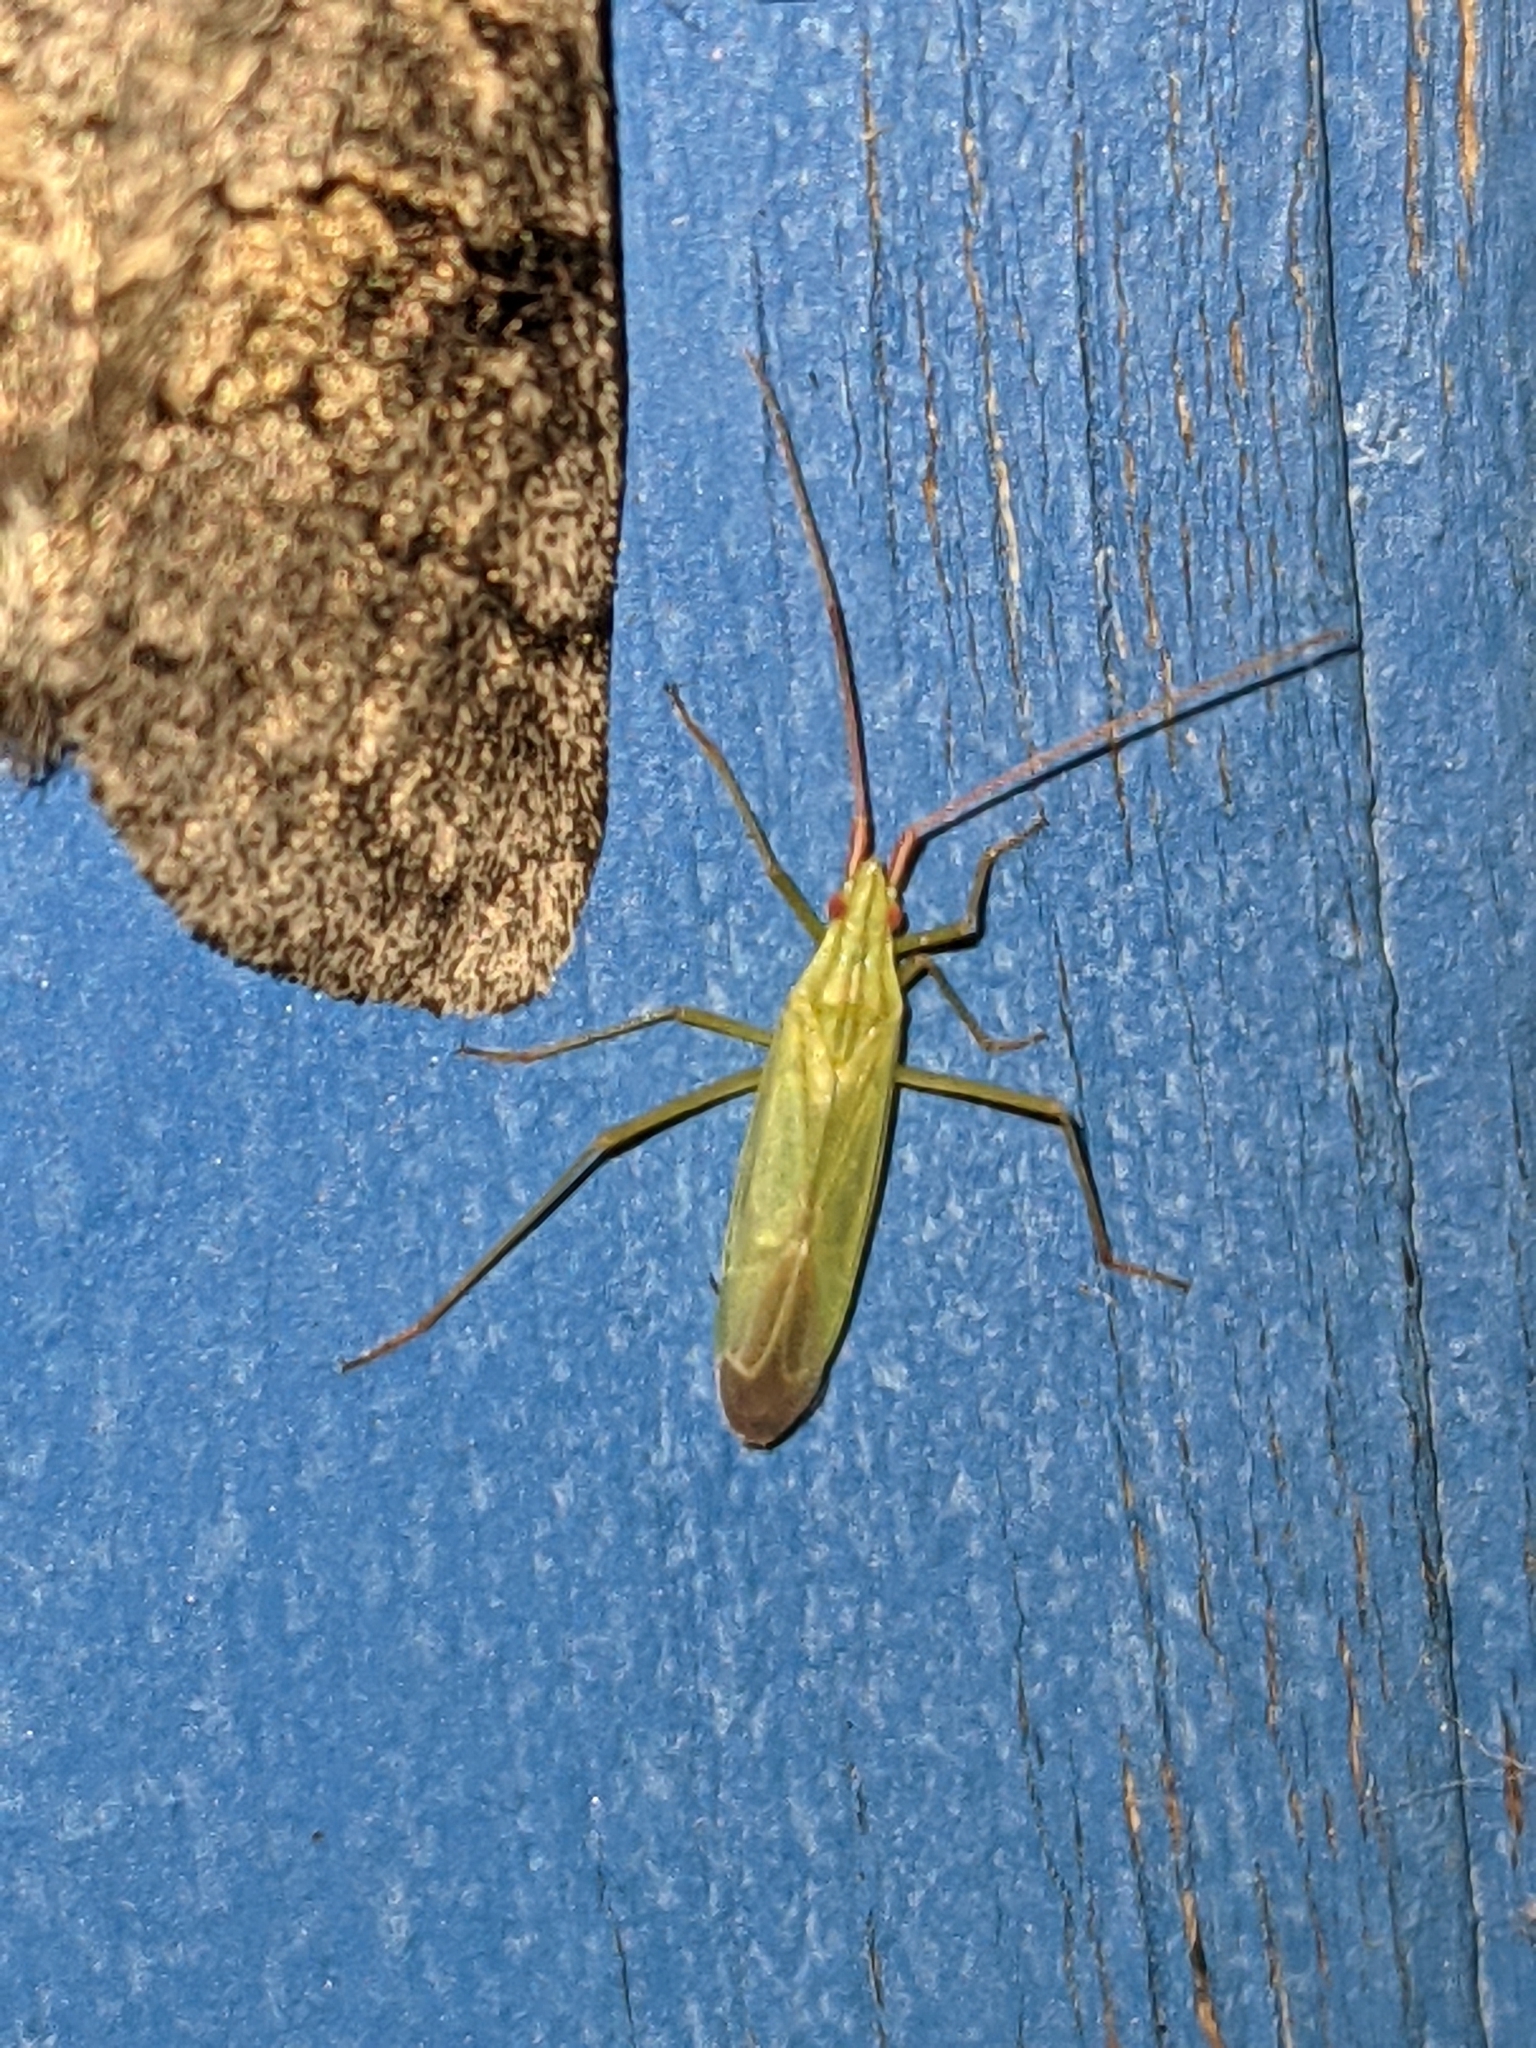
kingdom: Animalia
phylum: Arthropoda
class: Insecta
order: Hemiptera
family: Miridae
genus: Trigonotylus
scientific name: Trigonotylus caelestialium
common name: Rice leaf bug
